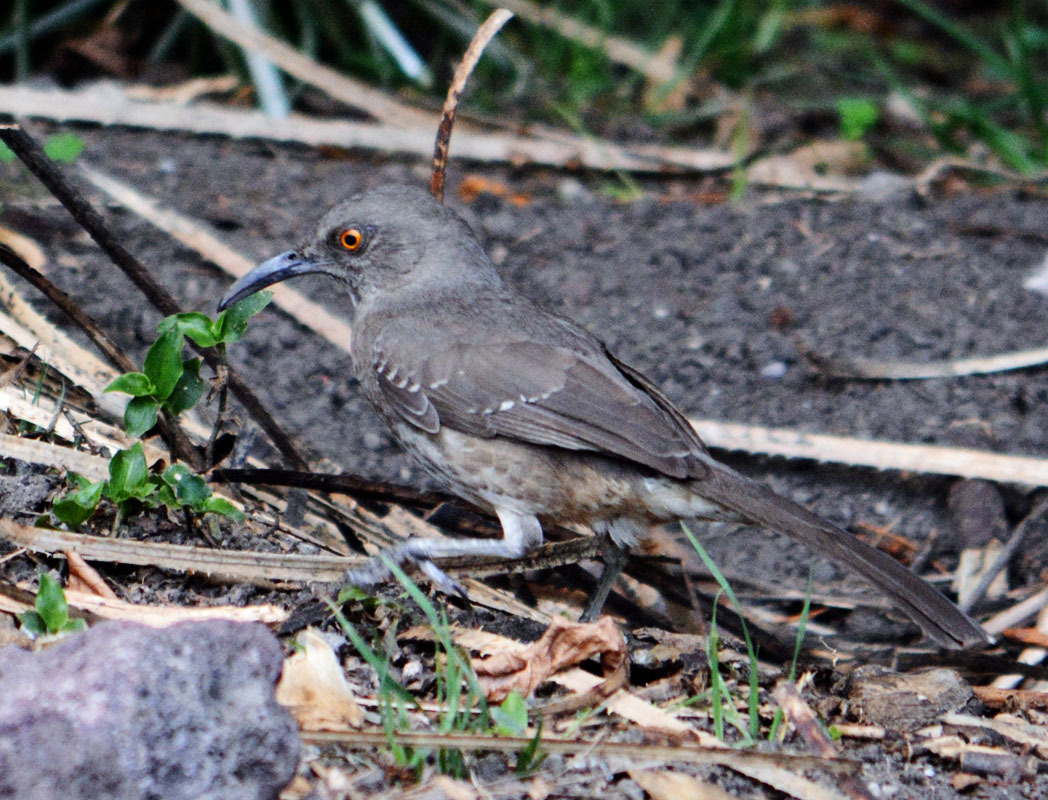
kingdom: Animalia
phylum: Chordata
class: Aves
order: Passeriformes
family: Mimidae
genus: Toxostoma
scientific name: Toxostoma curvirostre
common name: Curve-billed thrasher
